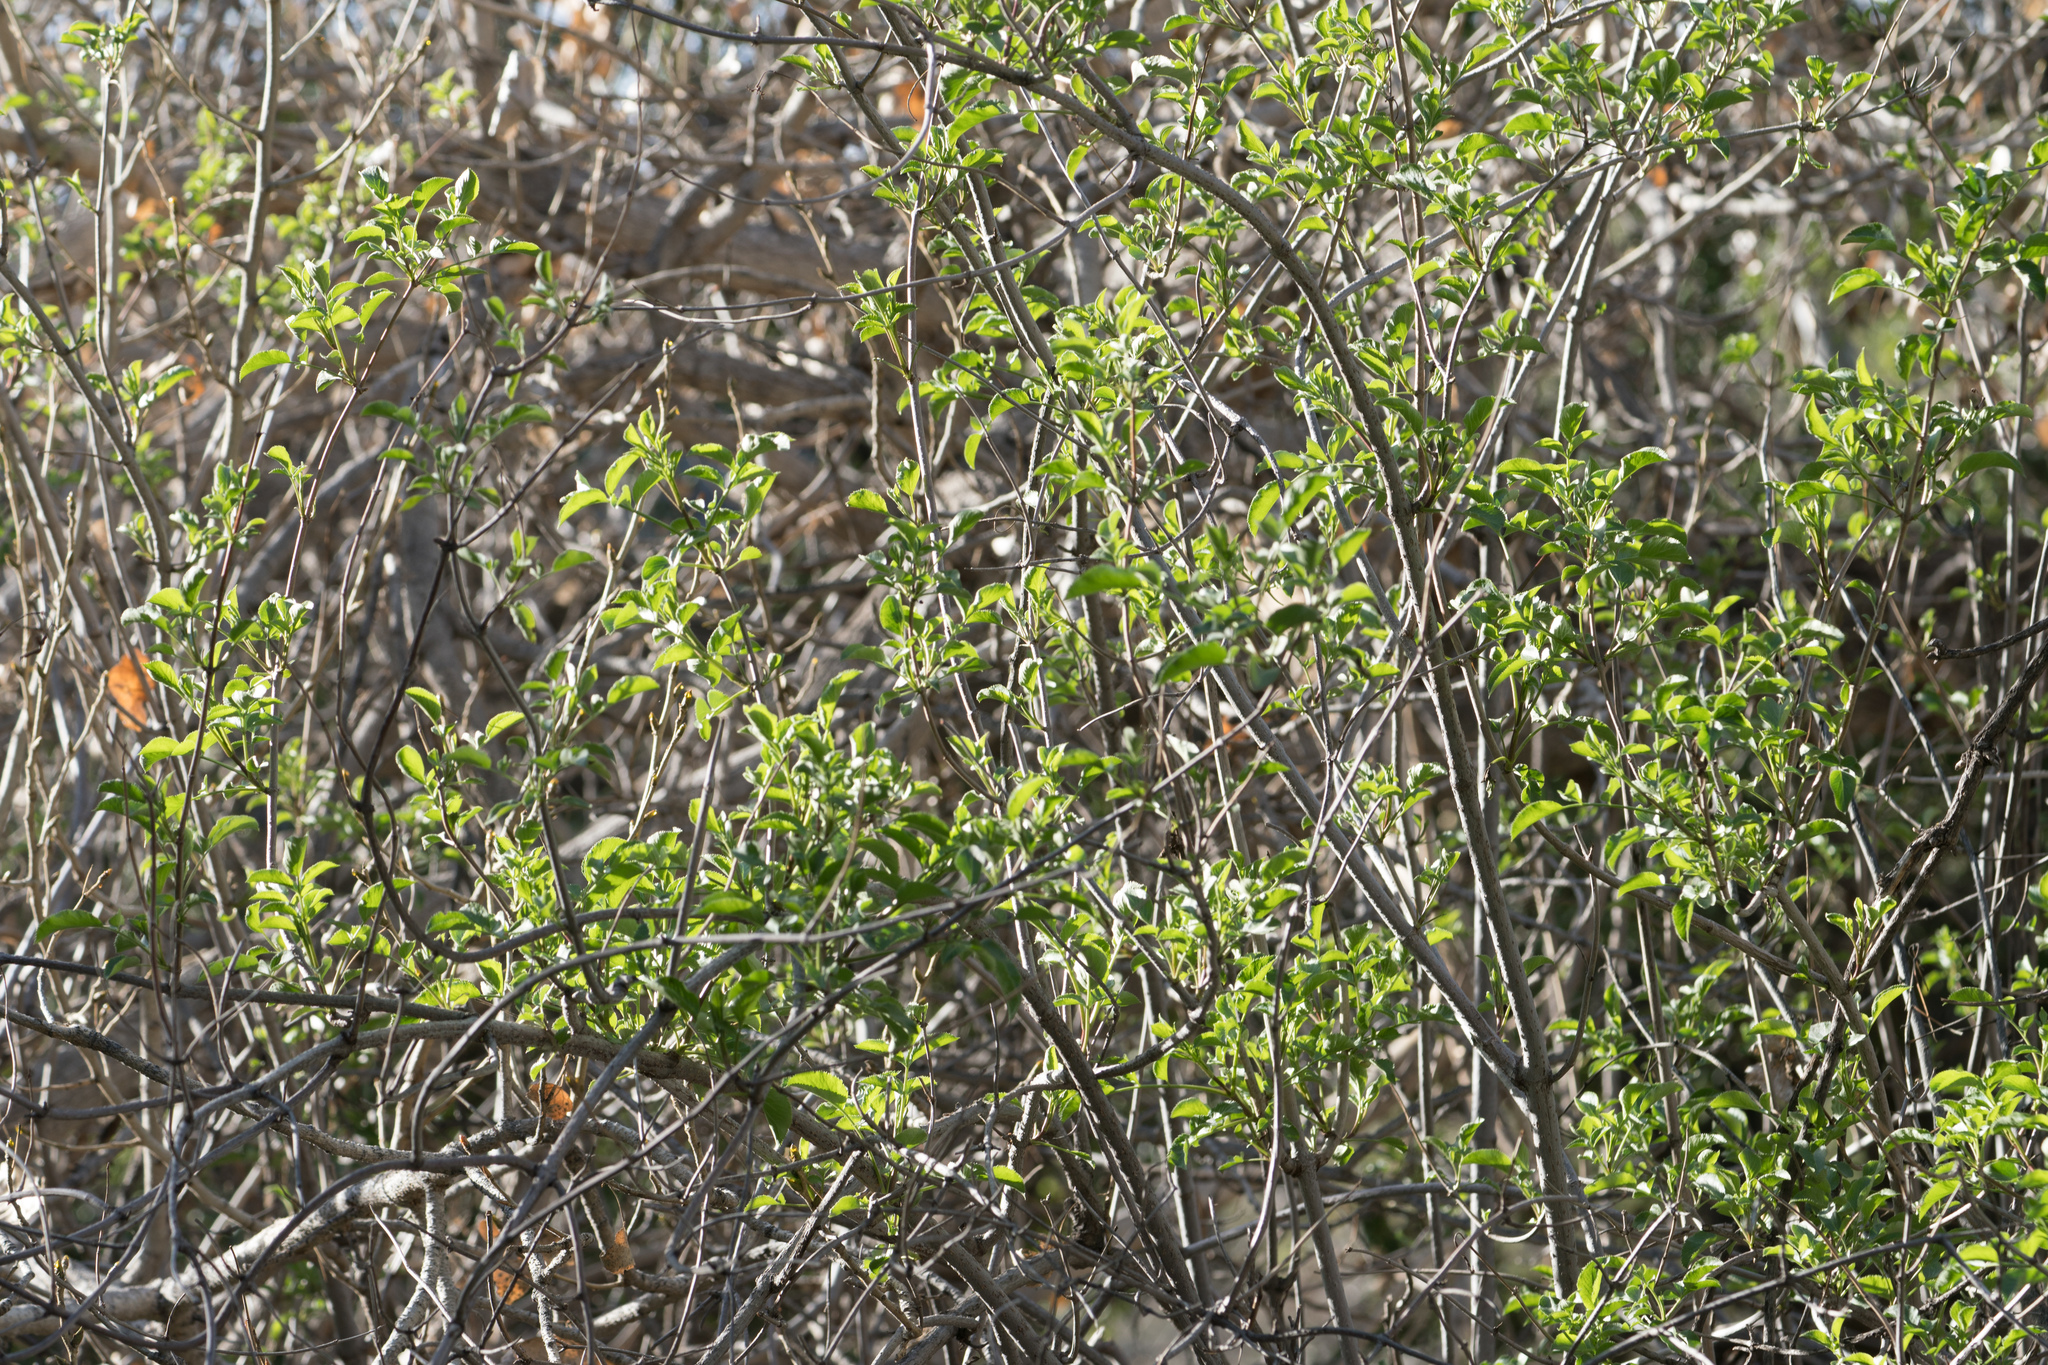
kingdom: Plantae
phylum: Tracheophyta
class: Magnoliopsida
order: Dipsacales
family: Viburnaceae
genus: Sambucus
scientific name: Sambucus cerulea
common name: Blue elder
